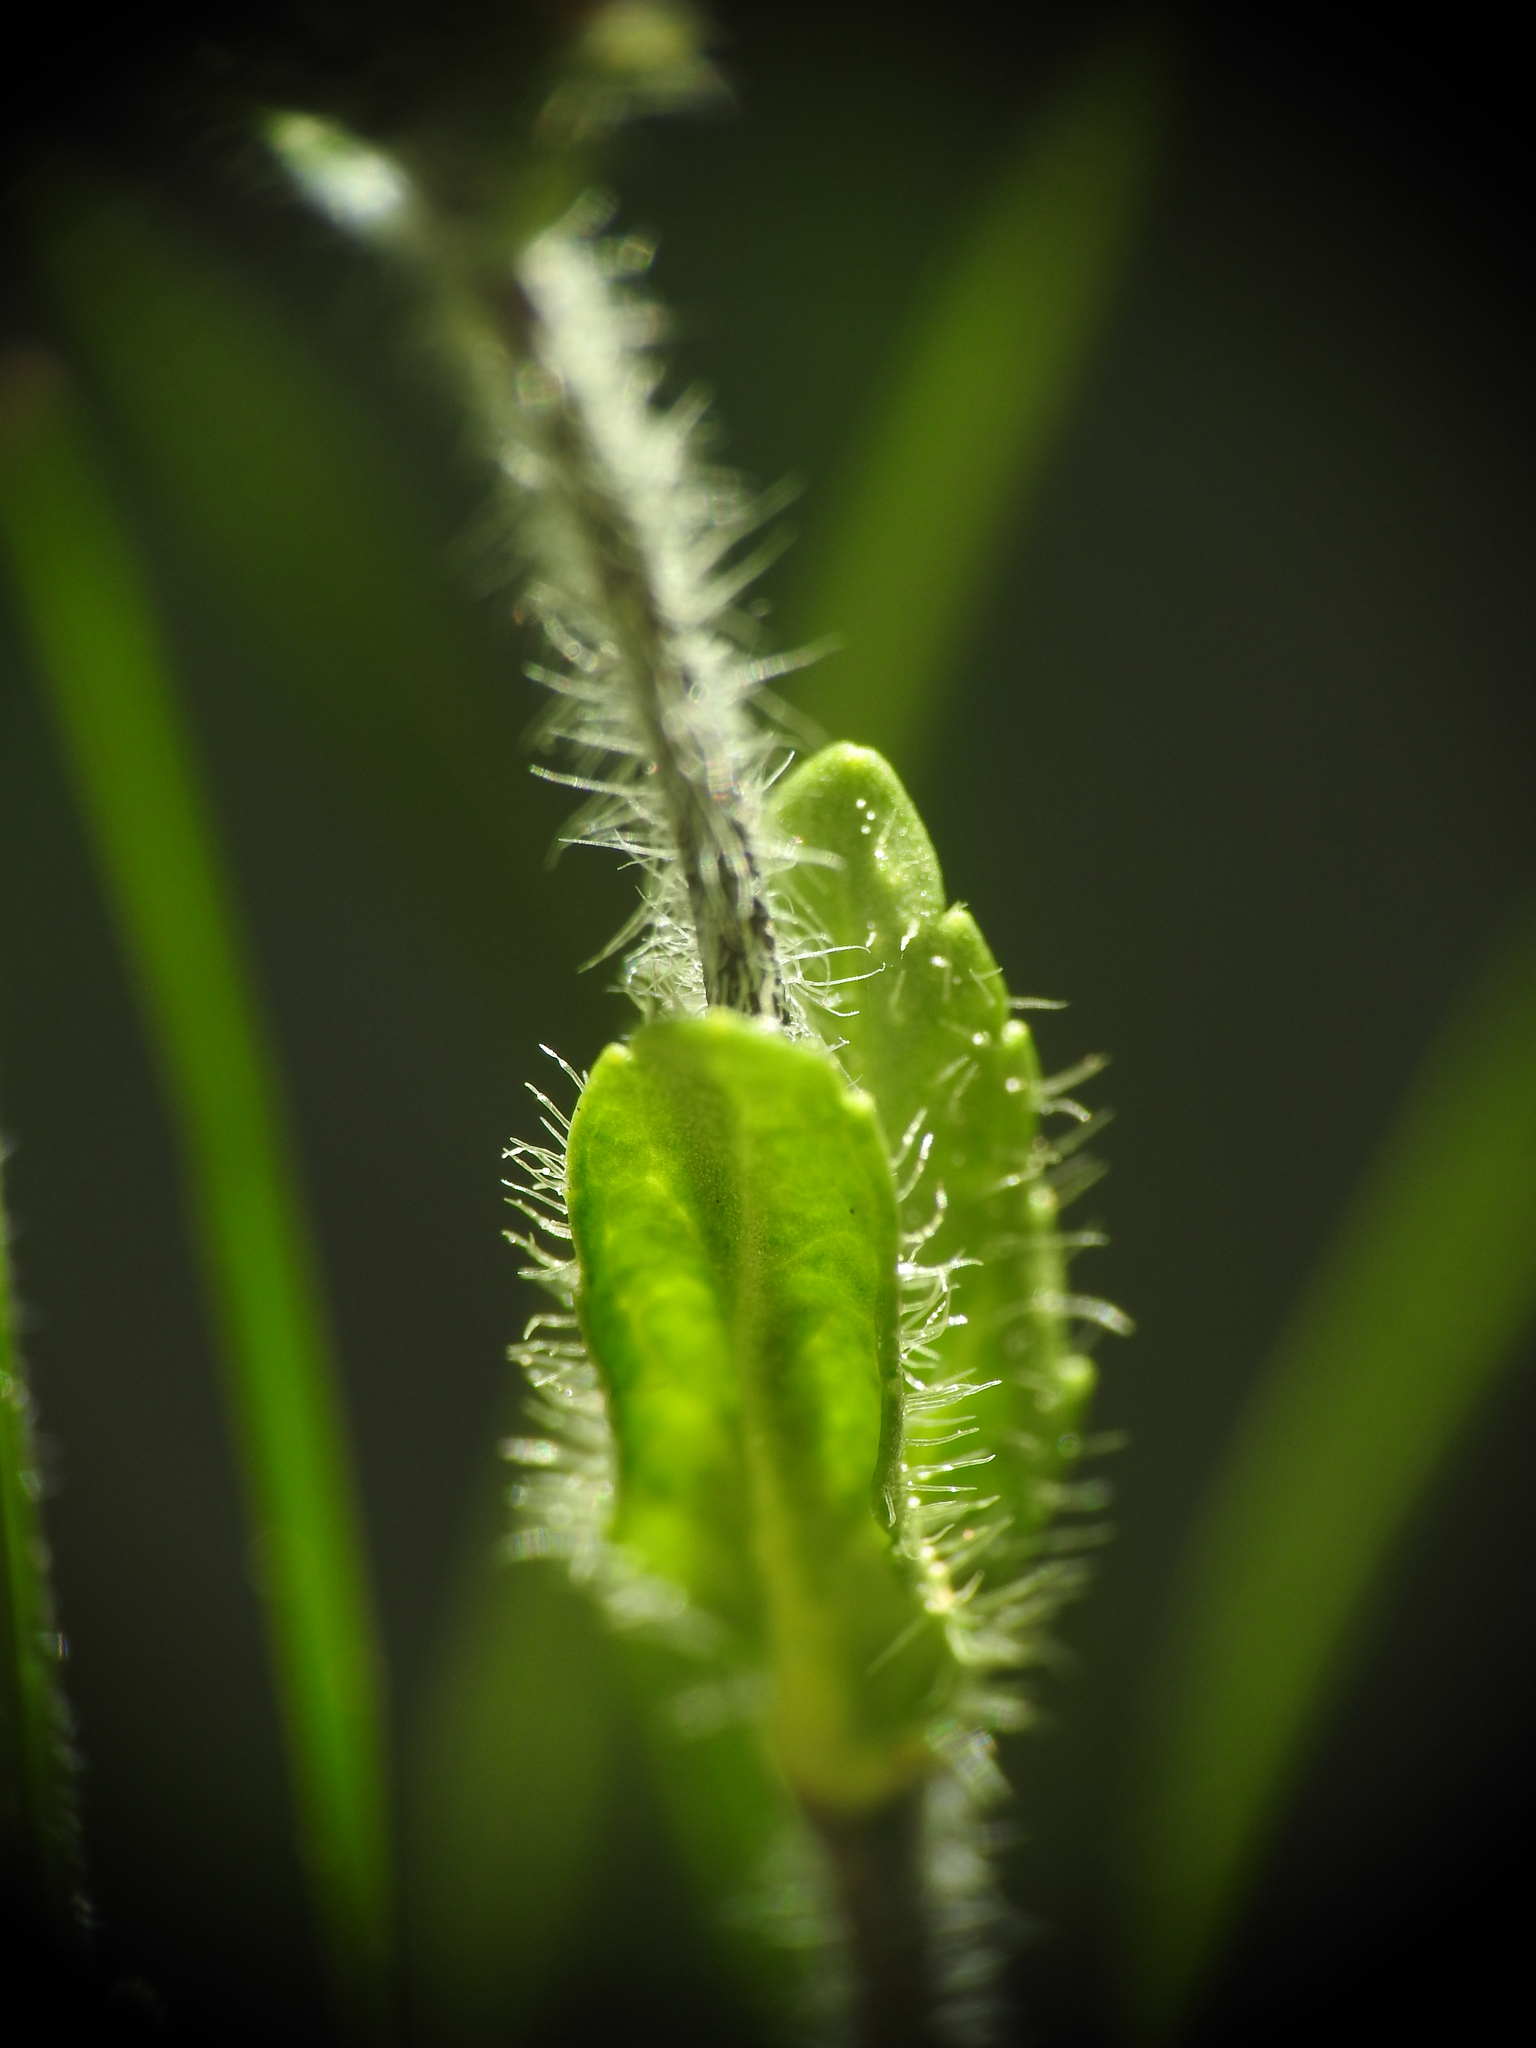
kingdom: Plantae
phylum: Tracheophyta
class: Magnoliopsida
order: Lamiales
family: Plantaginaceae
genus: Veronica
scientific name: Veronica alpina
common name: Alpine speedwell
